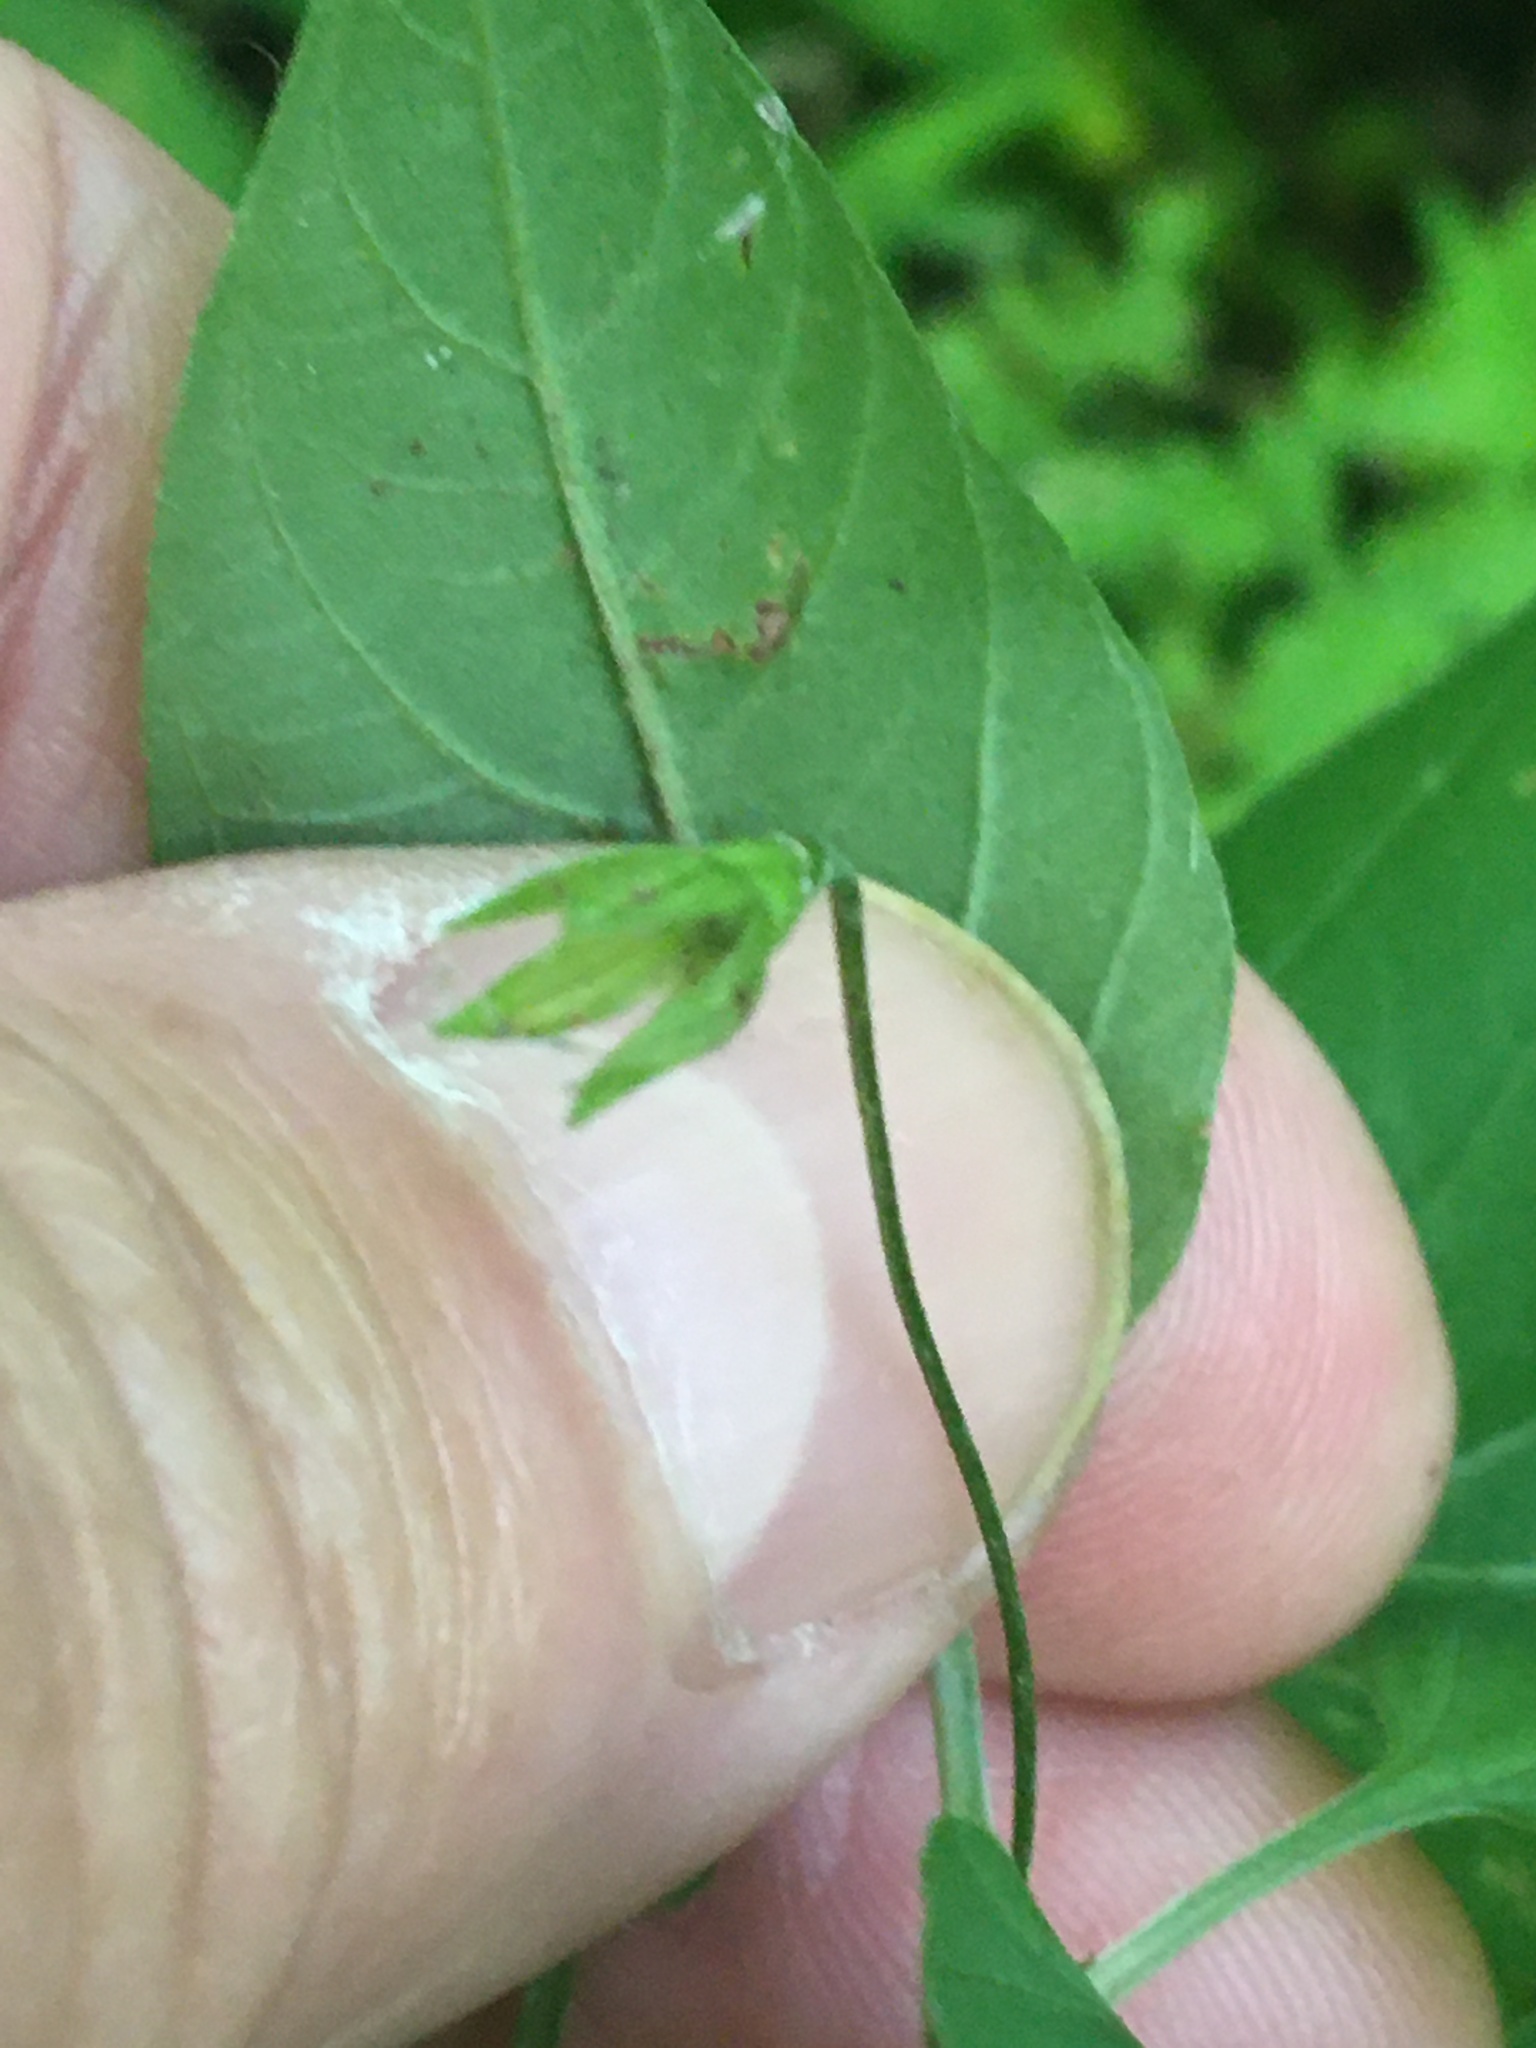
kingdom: Plantae
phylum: Tracheophyta
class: Magnoliopsida
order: Ericales
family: Primulaceae
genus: Lysimachia
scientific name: Lysimachia ciliata
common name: Fringed loosestrife
